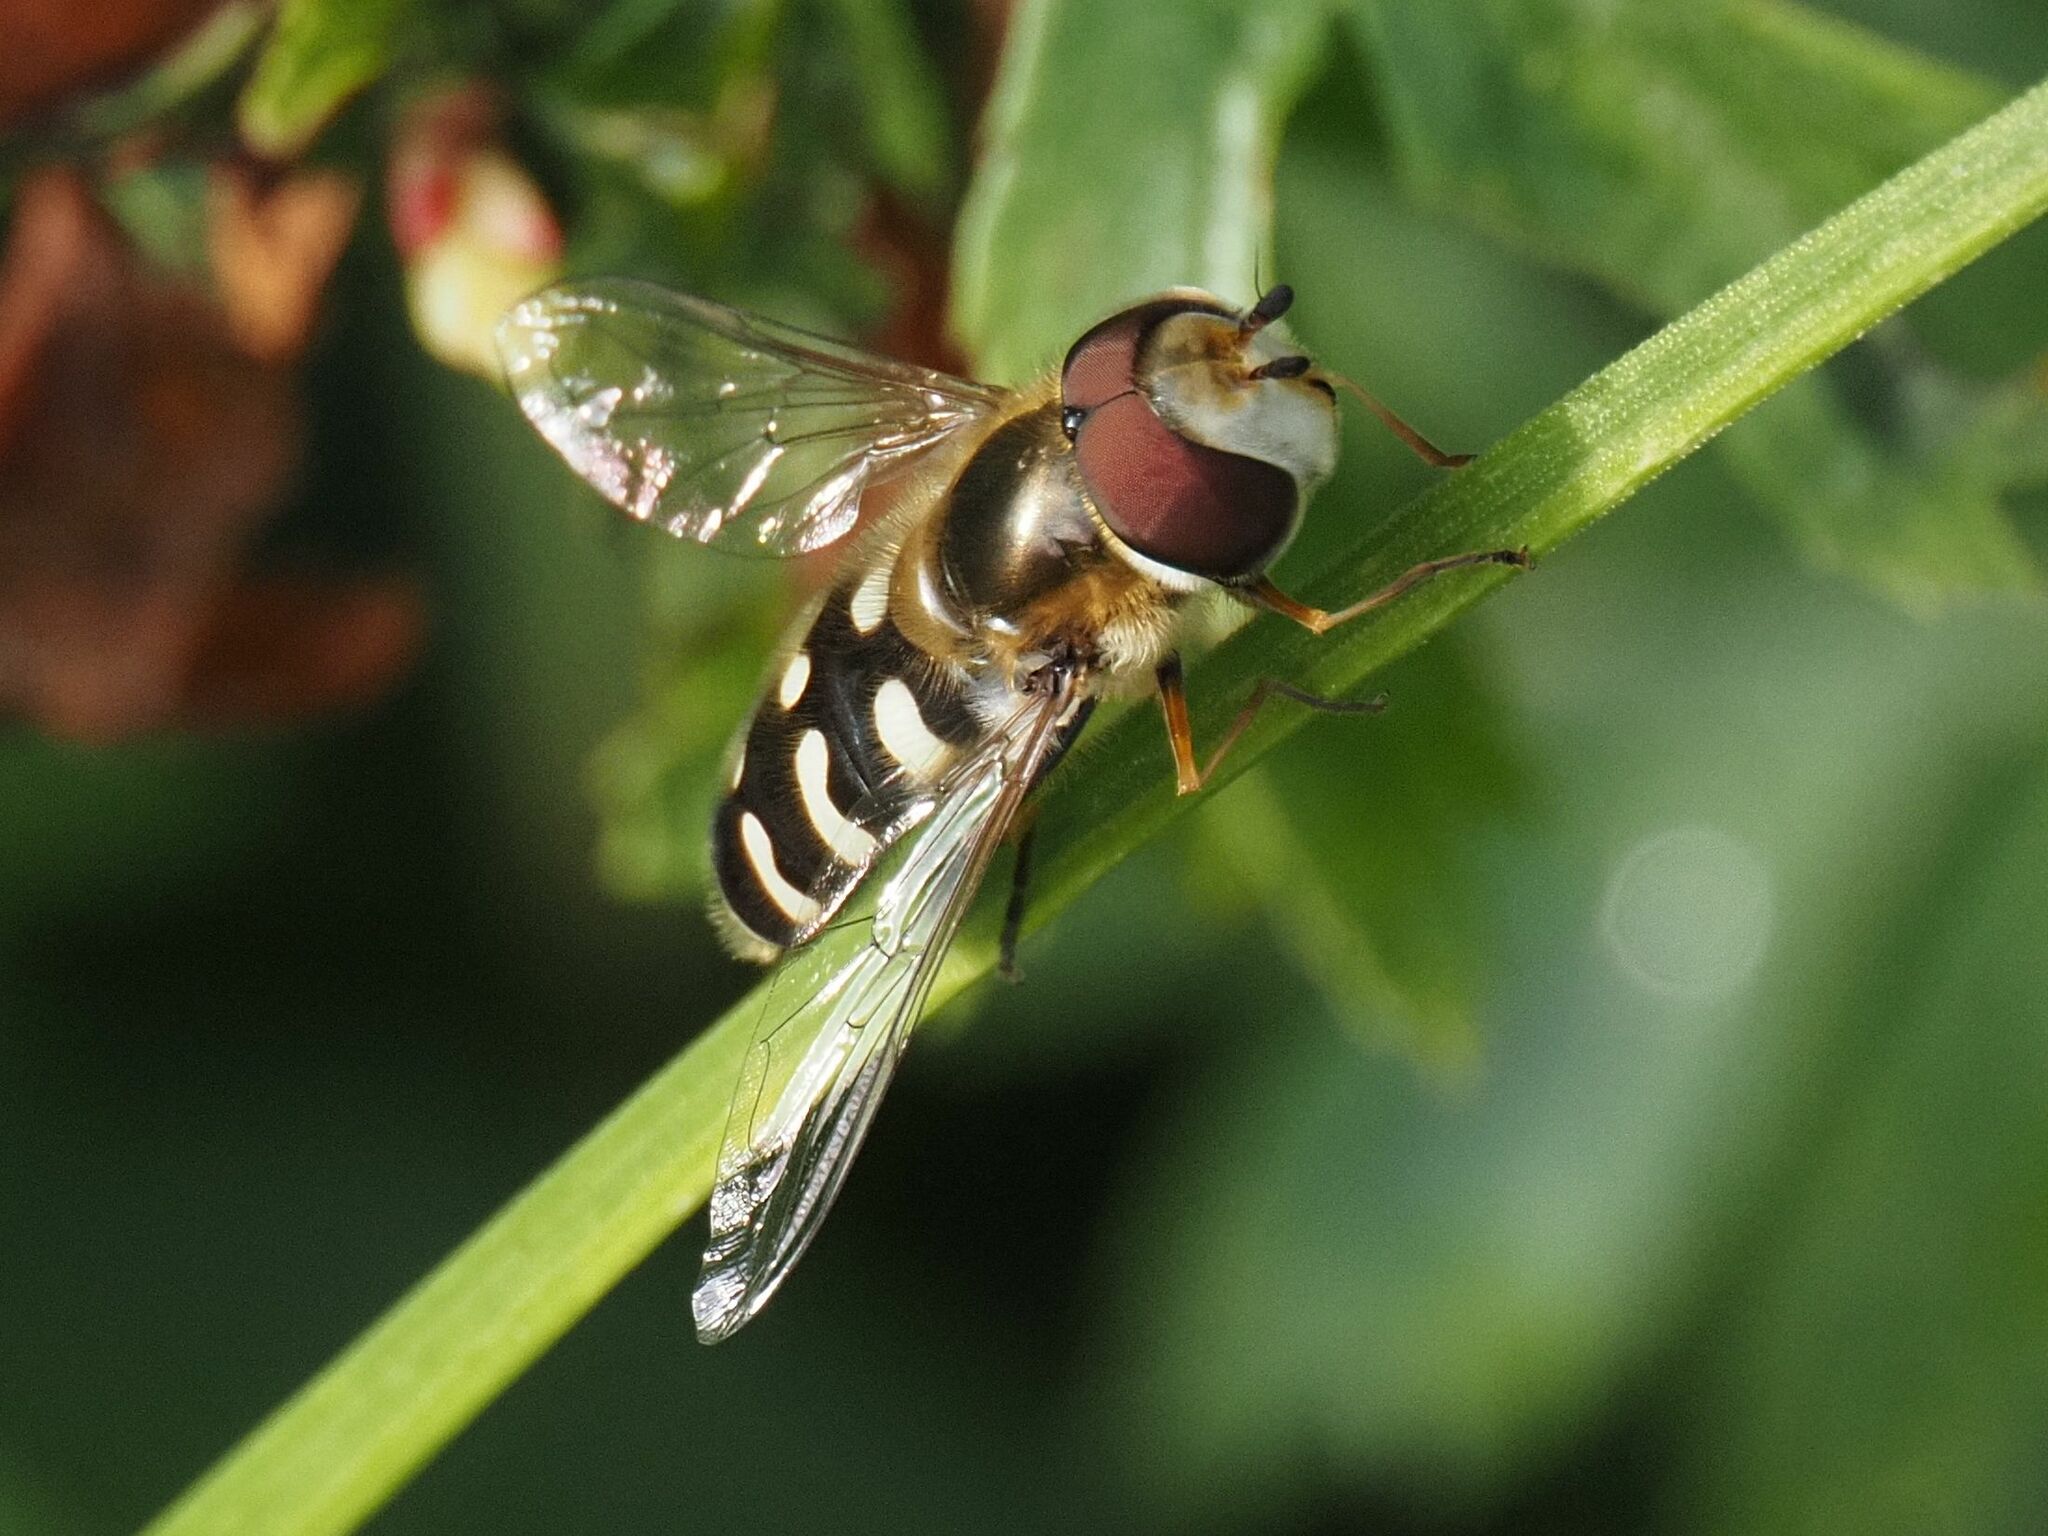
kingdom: Animalia
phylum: Arthropoda
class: Insecta
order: Diptera
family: Syrphidae
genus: Scaeva
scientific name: Scaeva pyrastri
